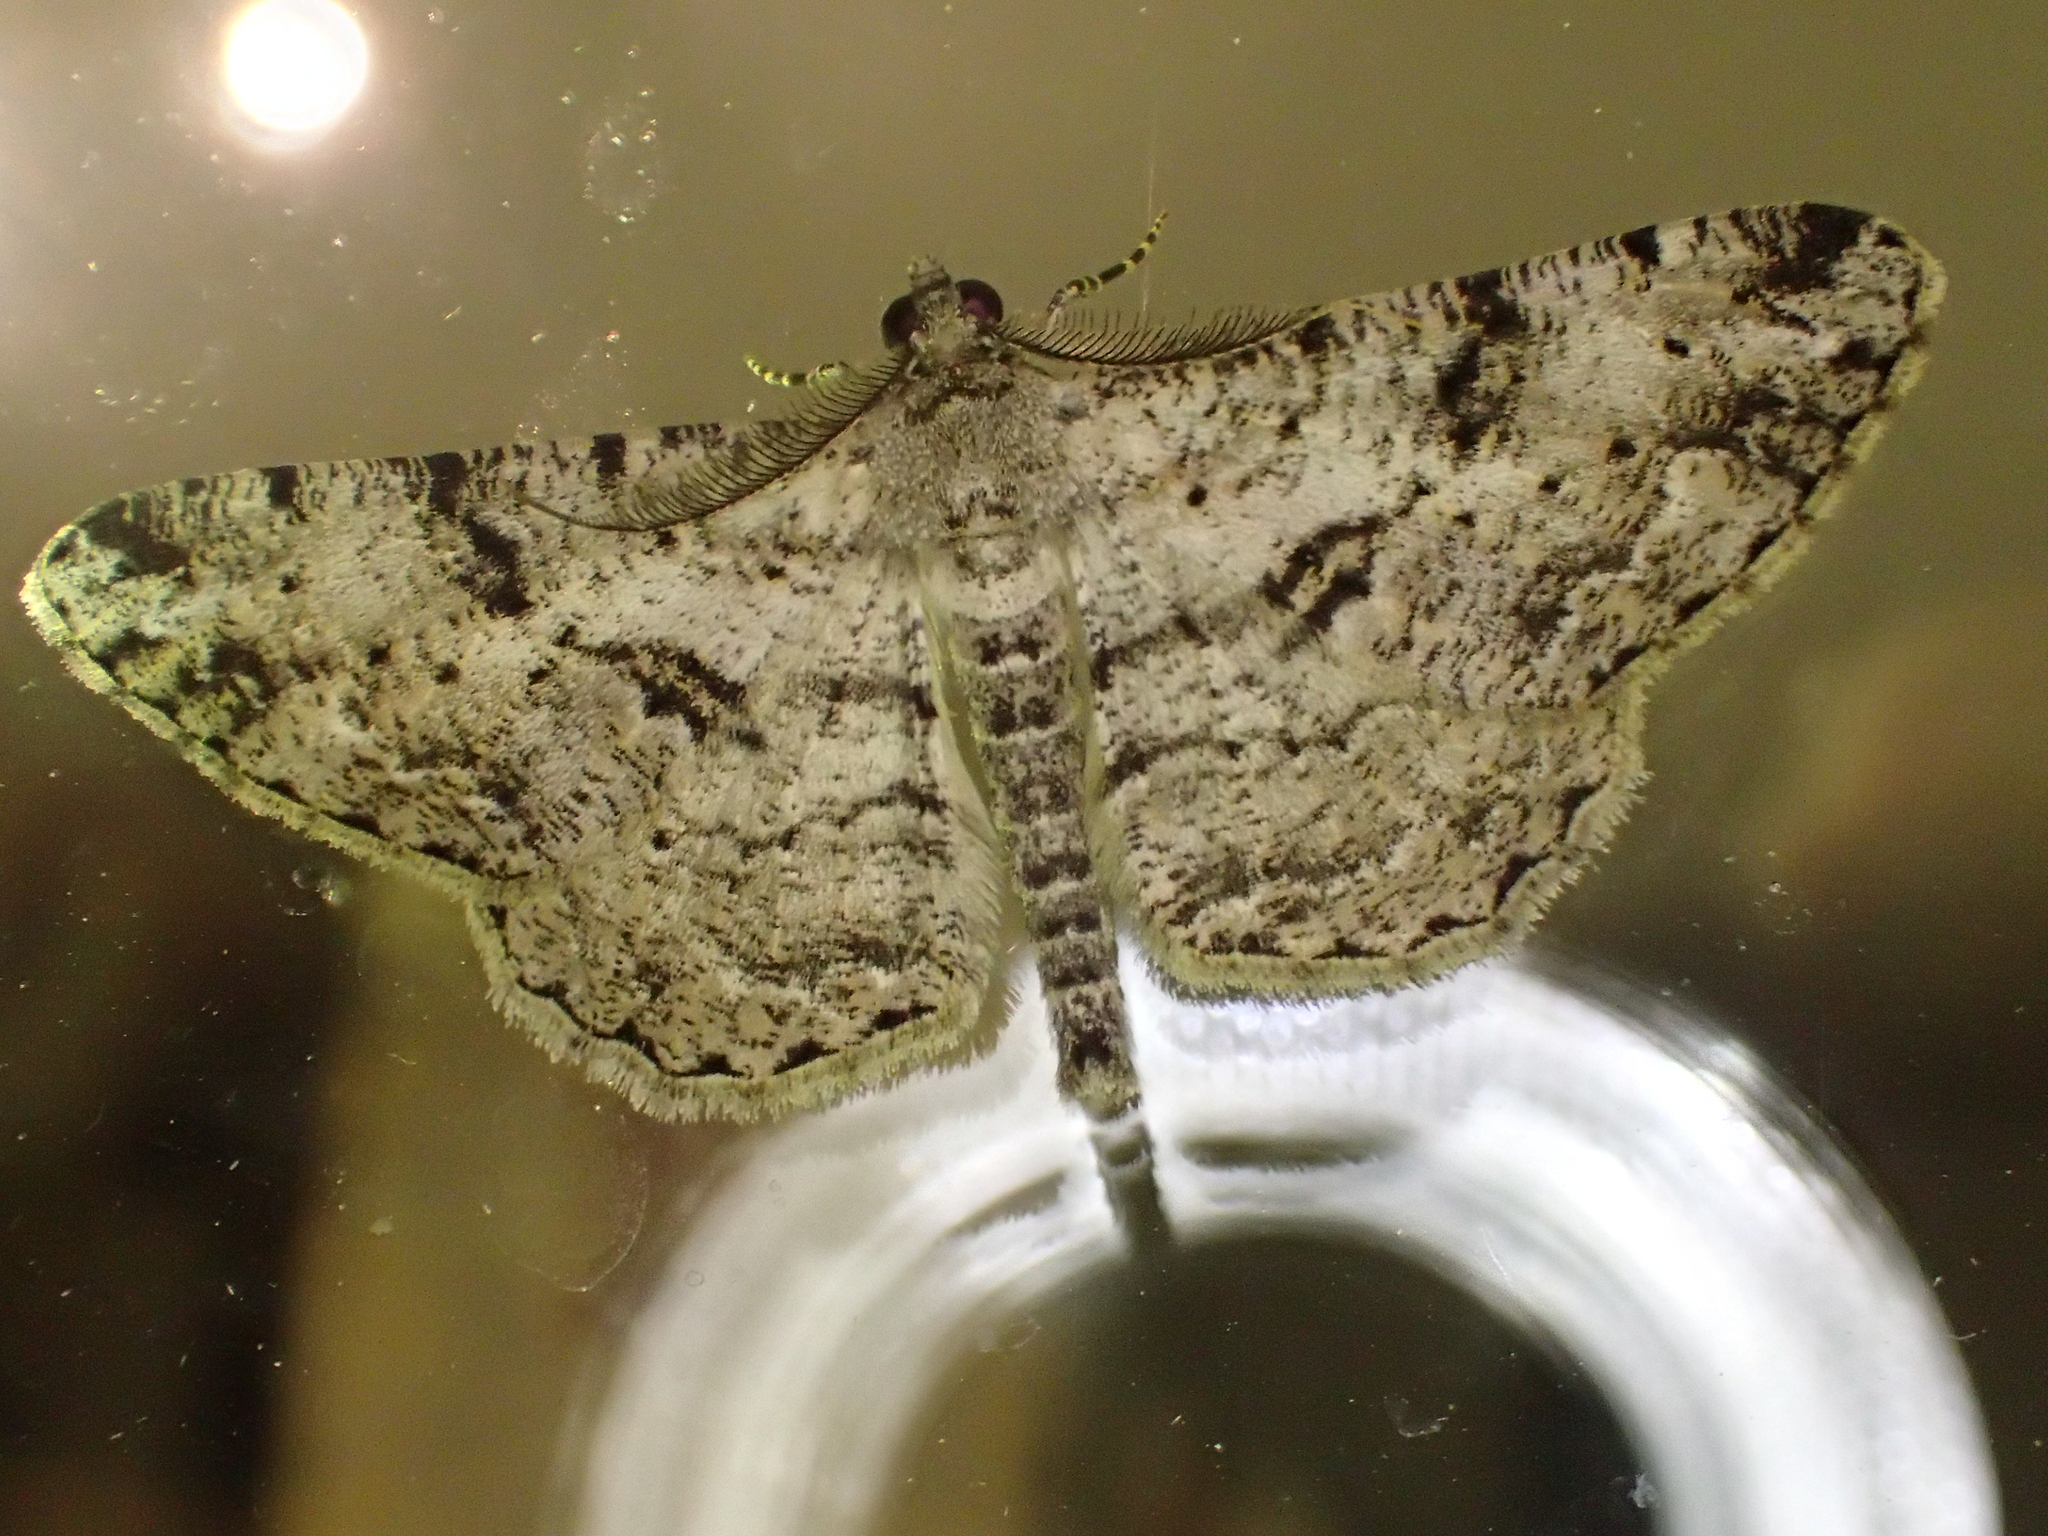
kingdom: Animalia
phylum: Arthropoda
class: Insecta
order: Lepidoptera
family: Geometridae
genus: Peribatodes
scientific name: Peribatodes rhomboidaria
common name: Willow beauty
